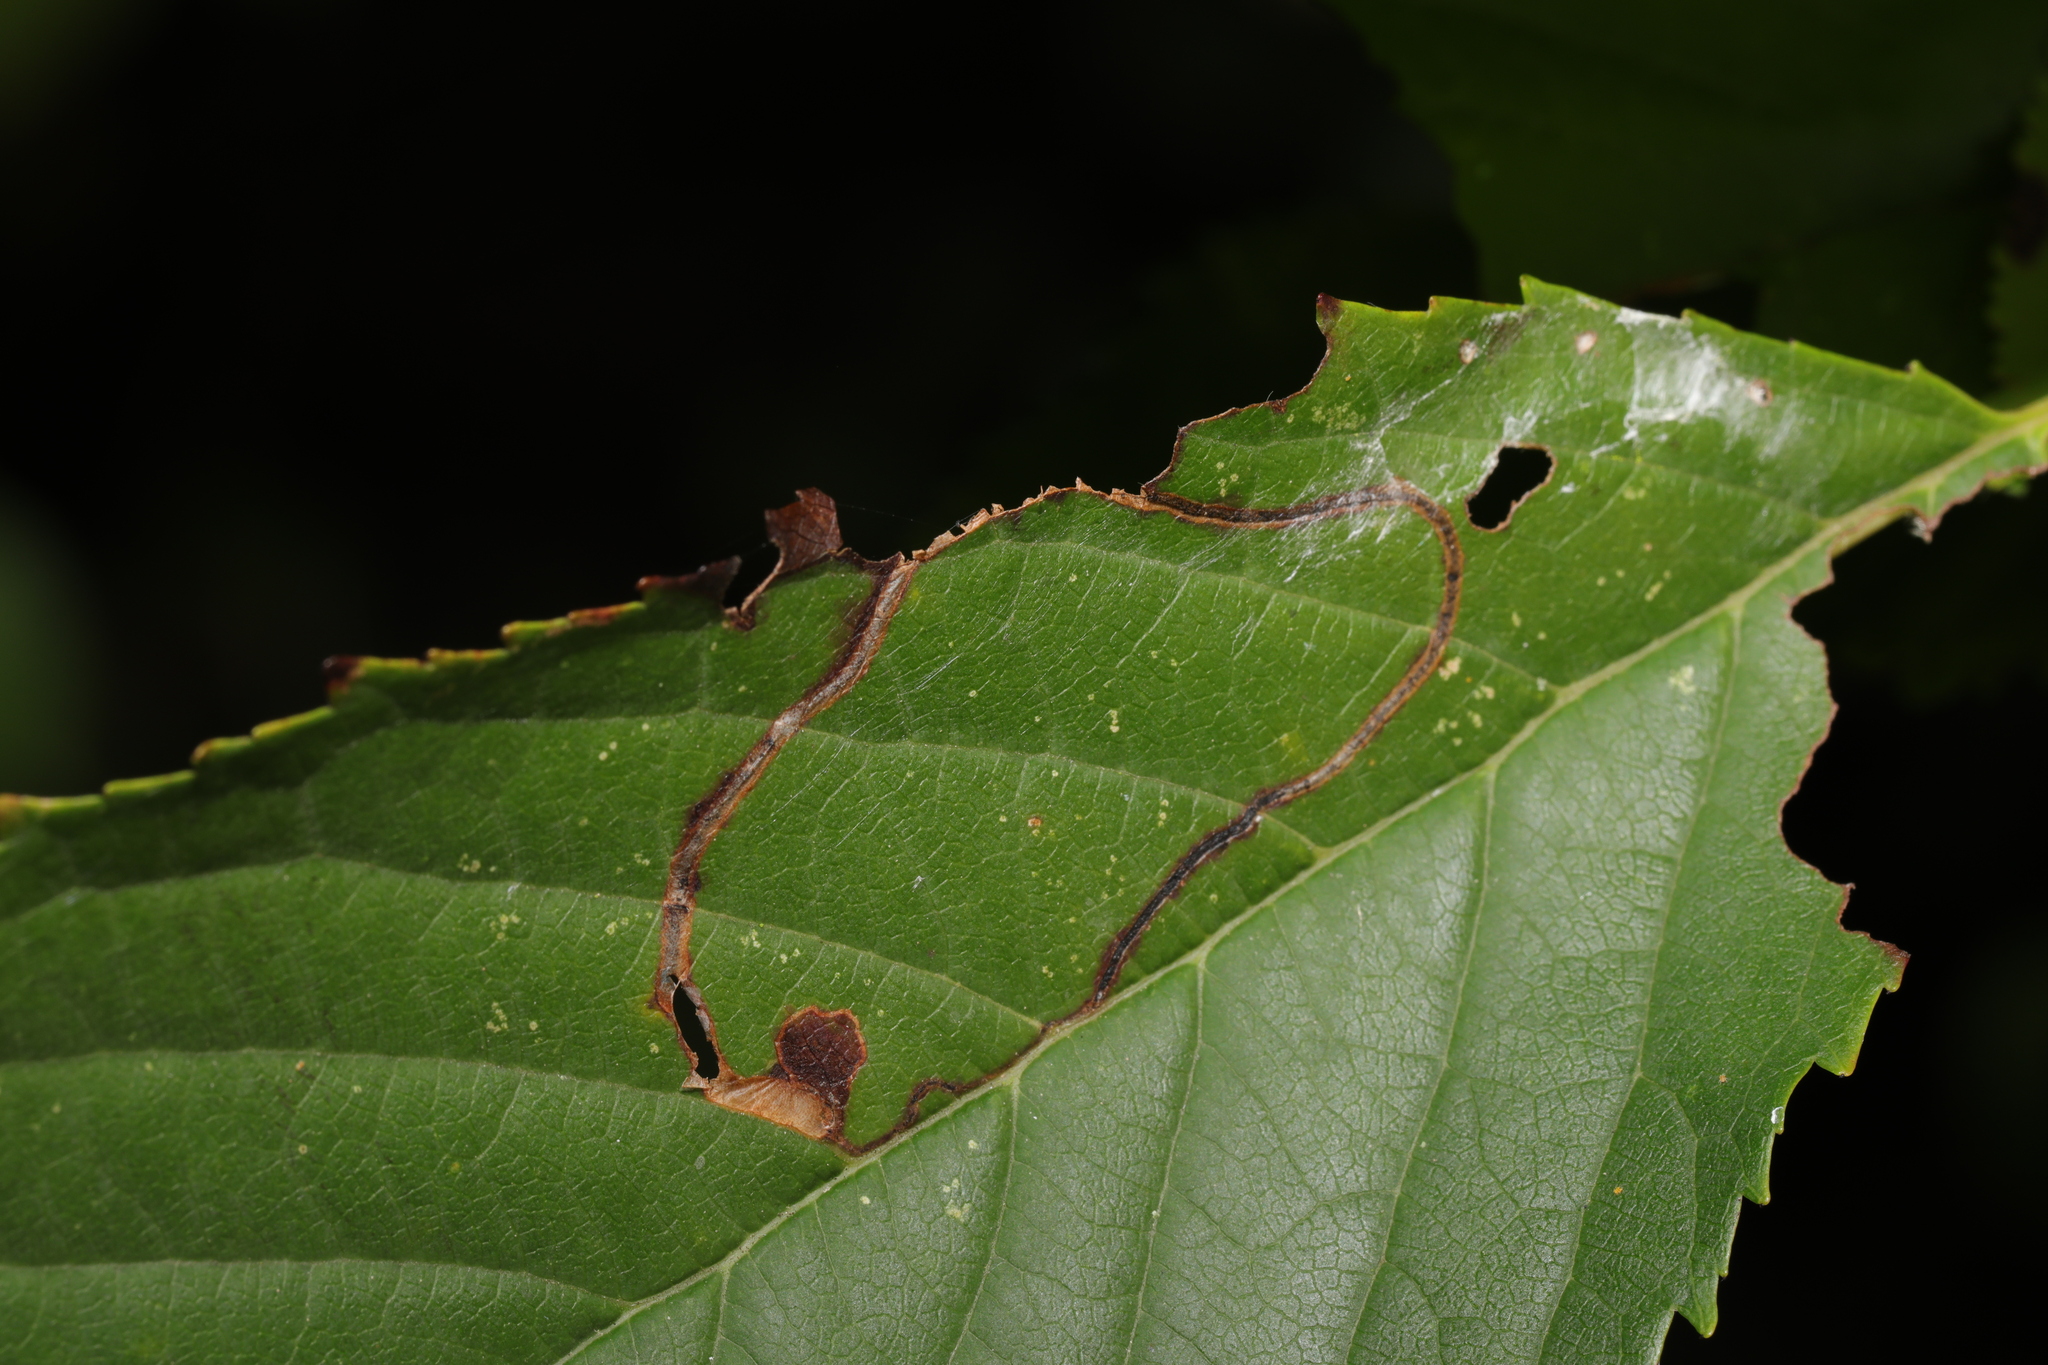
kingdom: Animalia
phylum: Arthropoda
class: Insecta
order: Lepidoptera
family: Lyonetiidae
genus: Lyonetia
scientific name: Lyonetia clerkella
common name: Apple leaf miner
